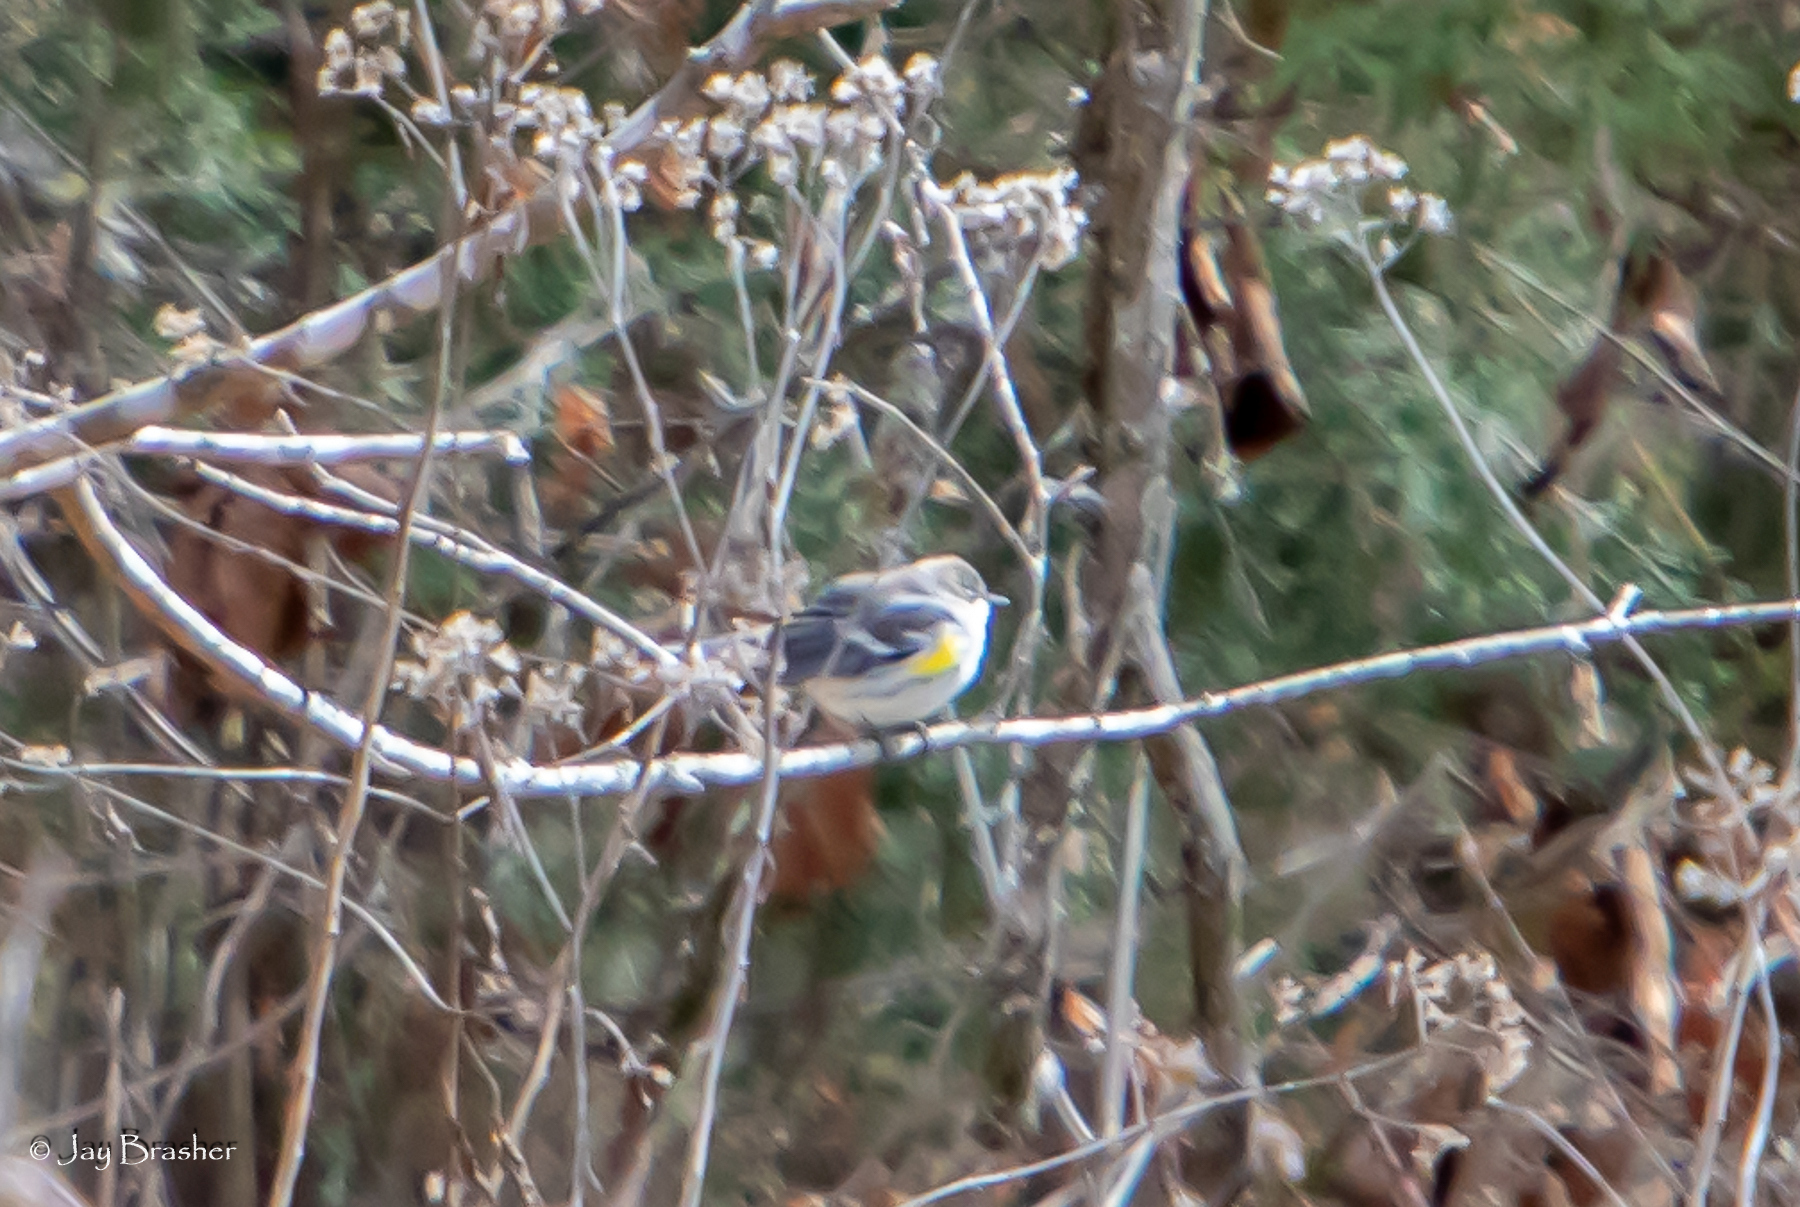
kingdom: Animalia
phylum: Chordata
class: Aves
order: Passeriformes
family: Parulidae
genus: Setophaga
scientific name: Setophaga coronata
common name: Myrtle warbler
